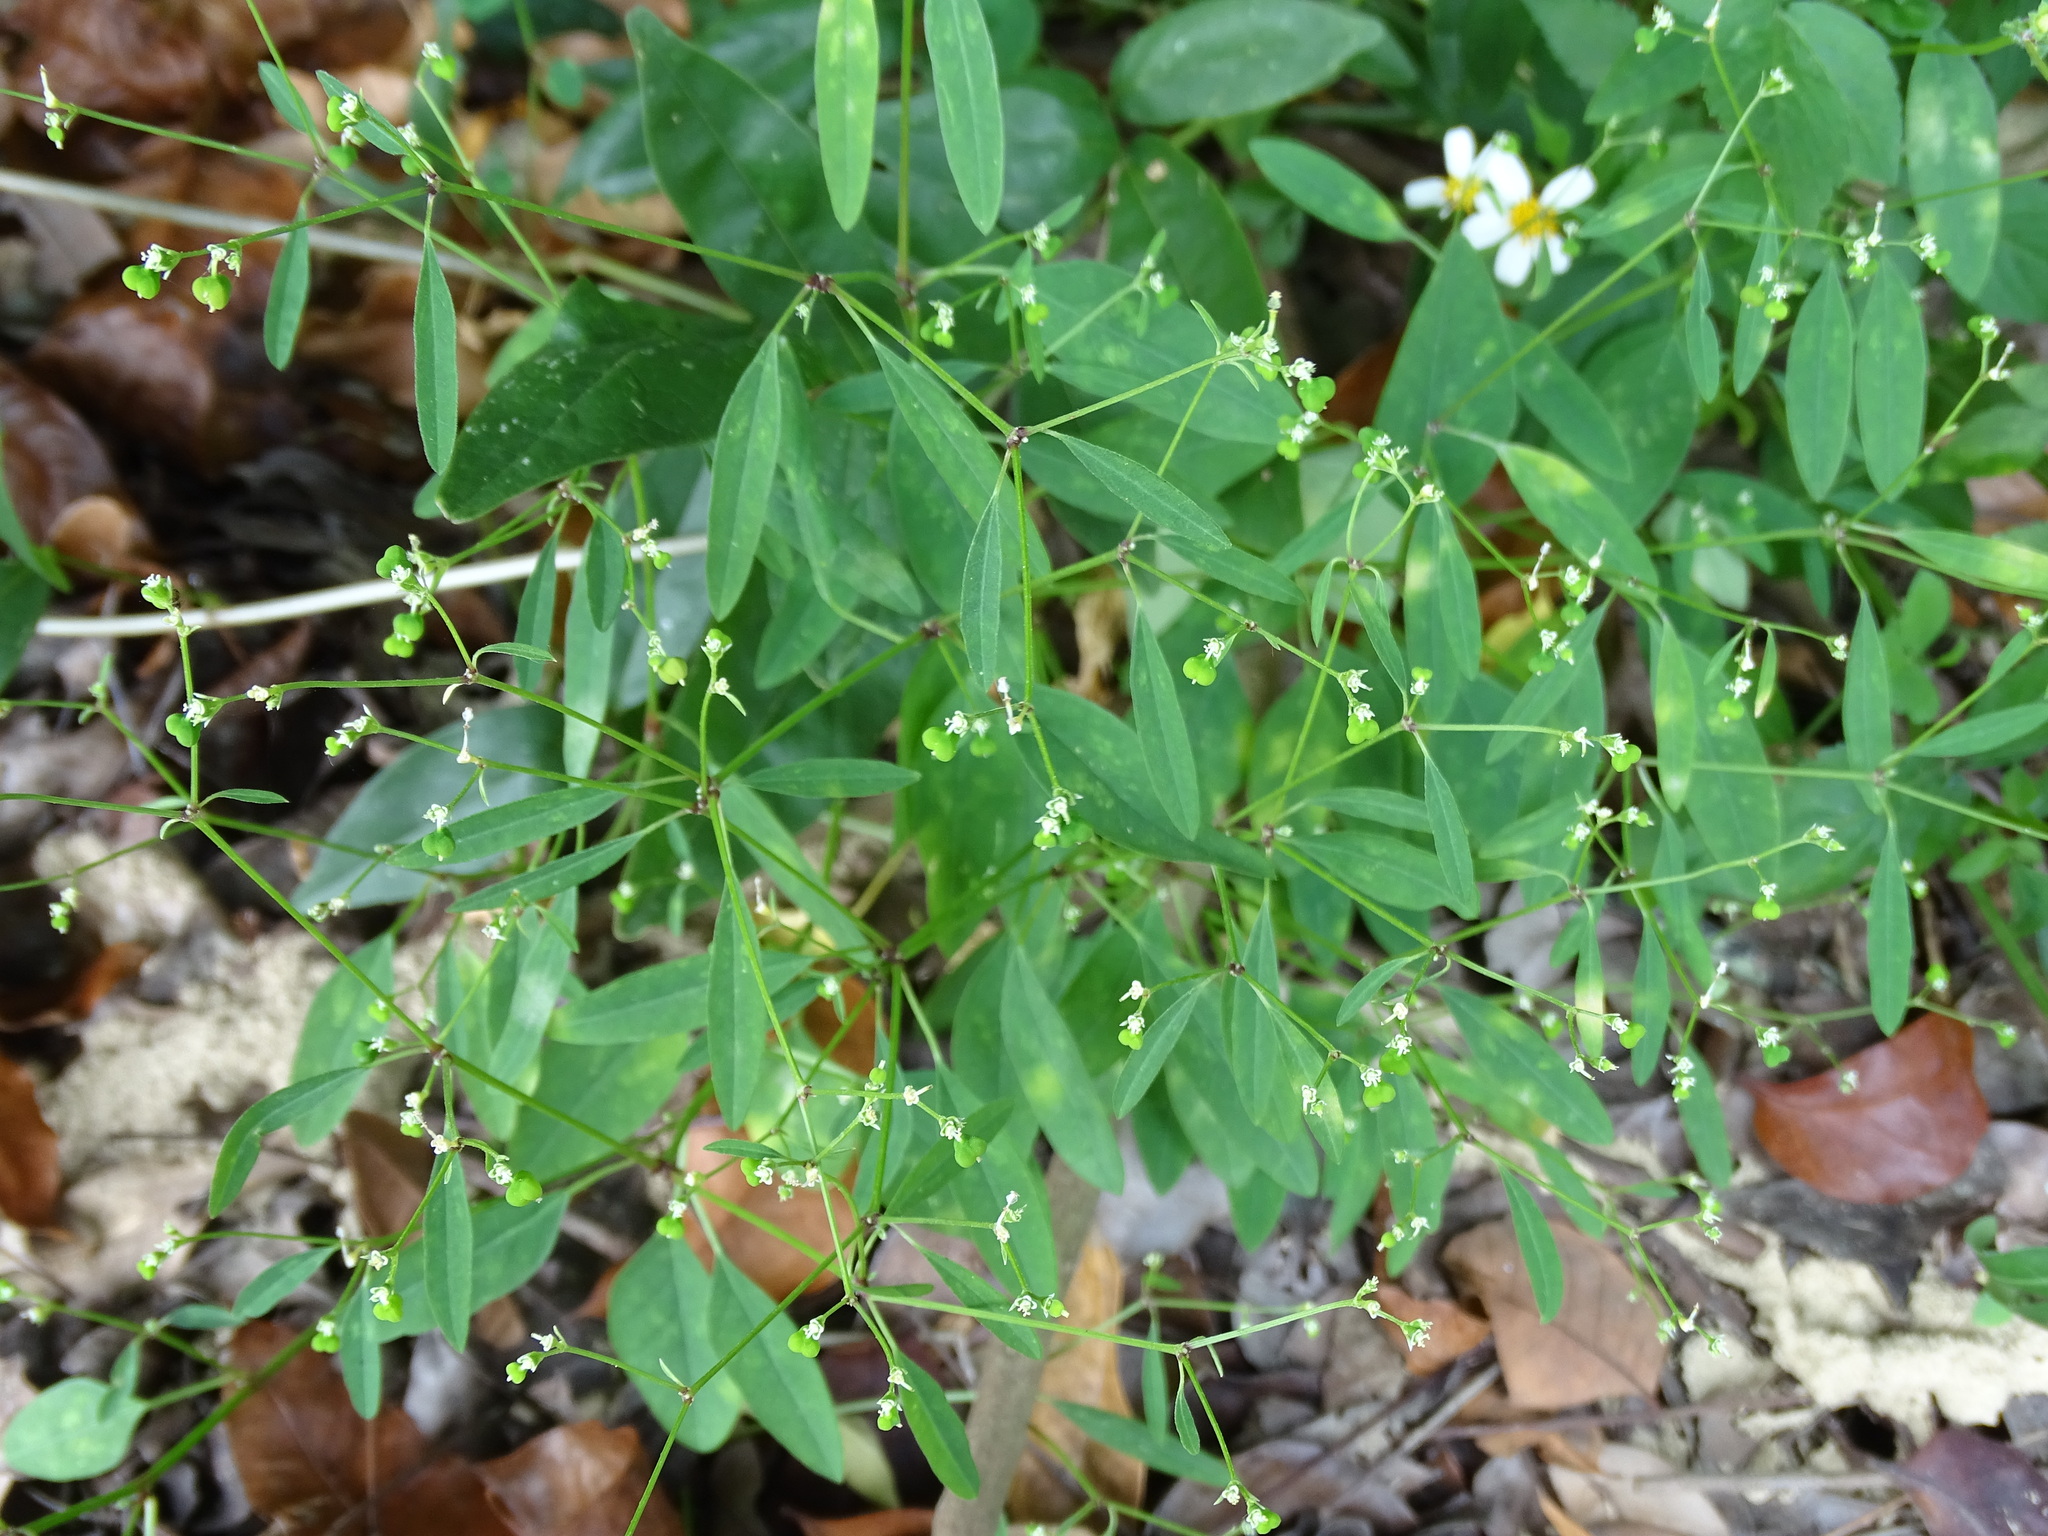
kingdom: Plantae
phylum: Tracheophyta
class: Magnoliopsida
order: Malpighiales
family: Euphorbiaceae
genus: Euphorbia
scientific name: Euphorbia graminea
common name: Grassleaf spurge
